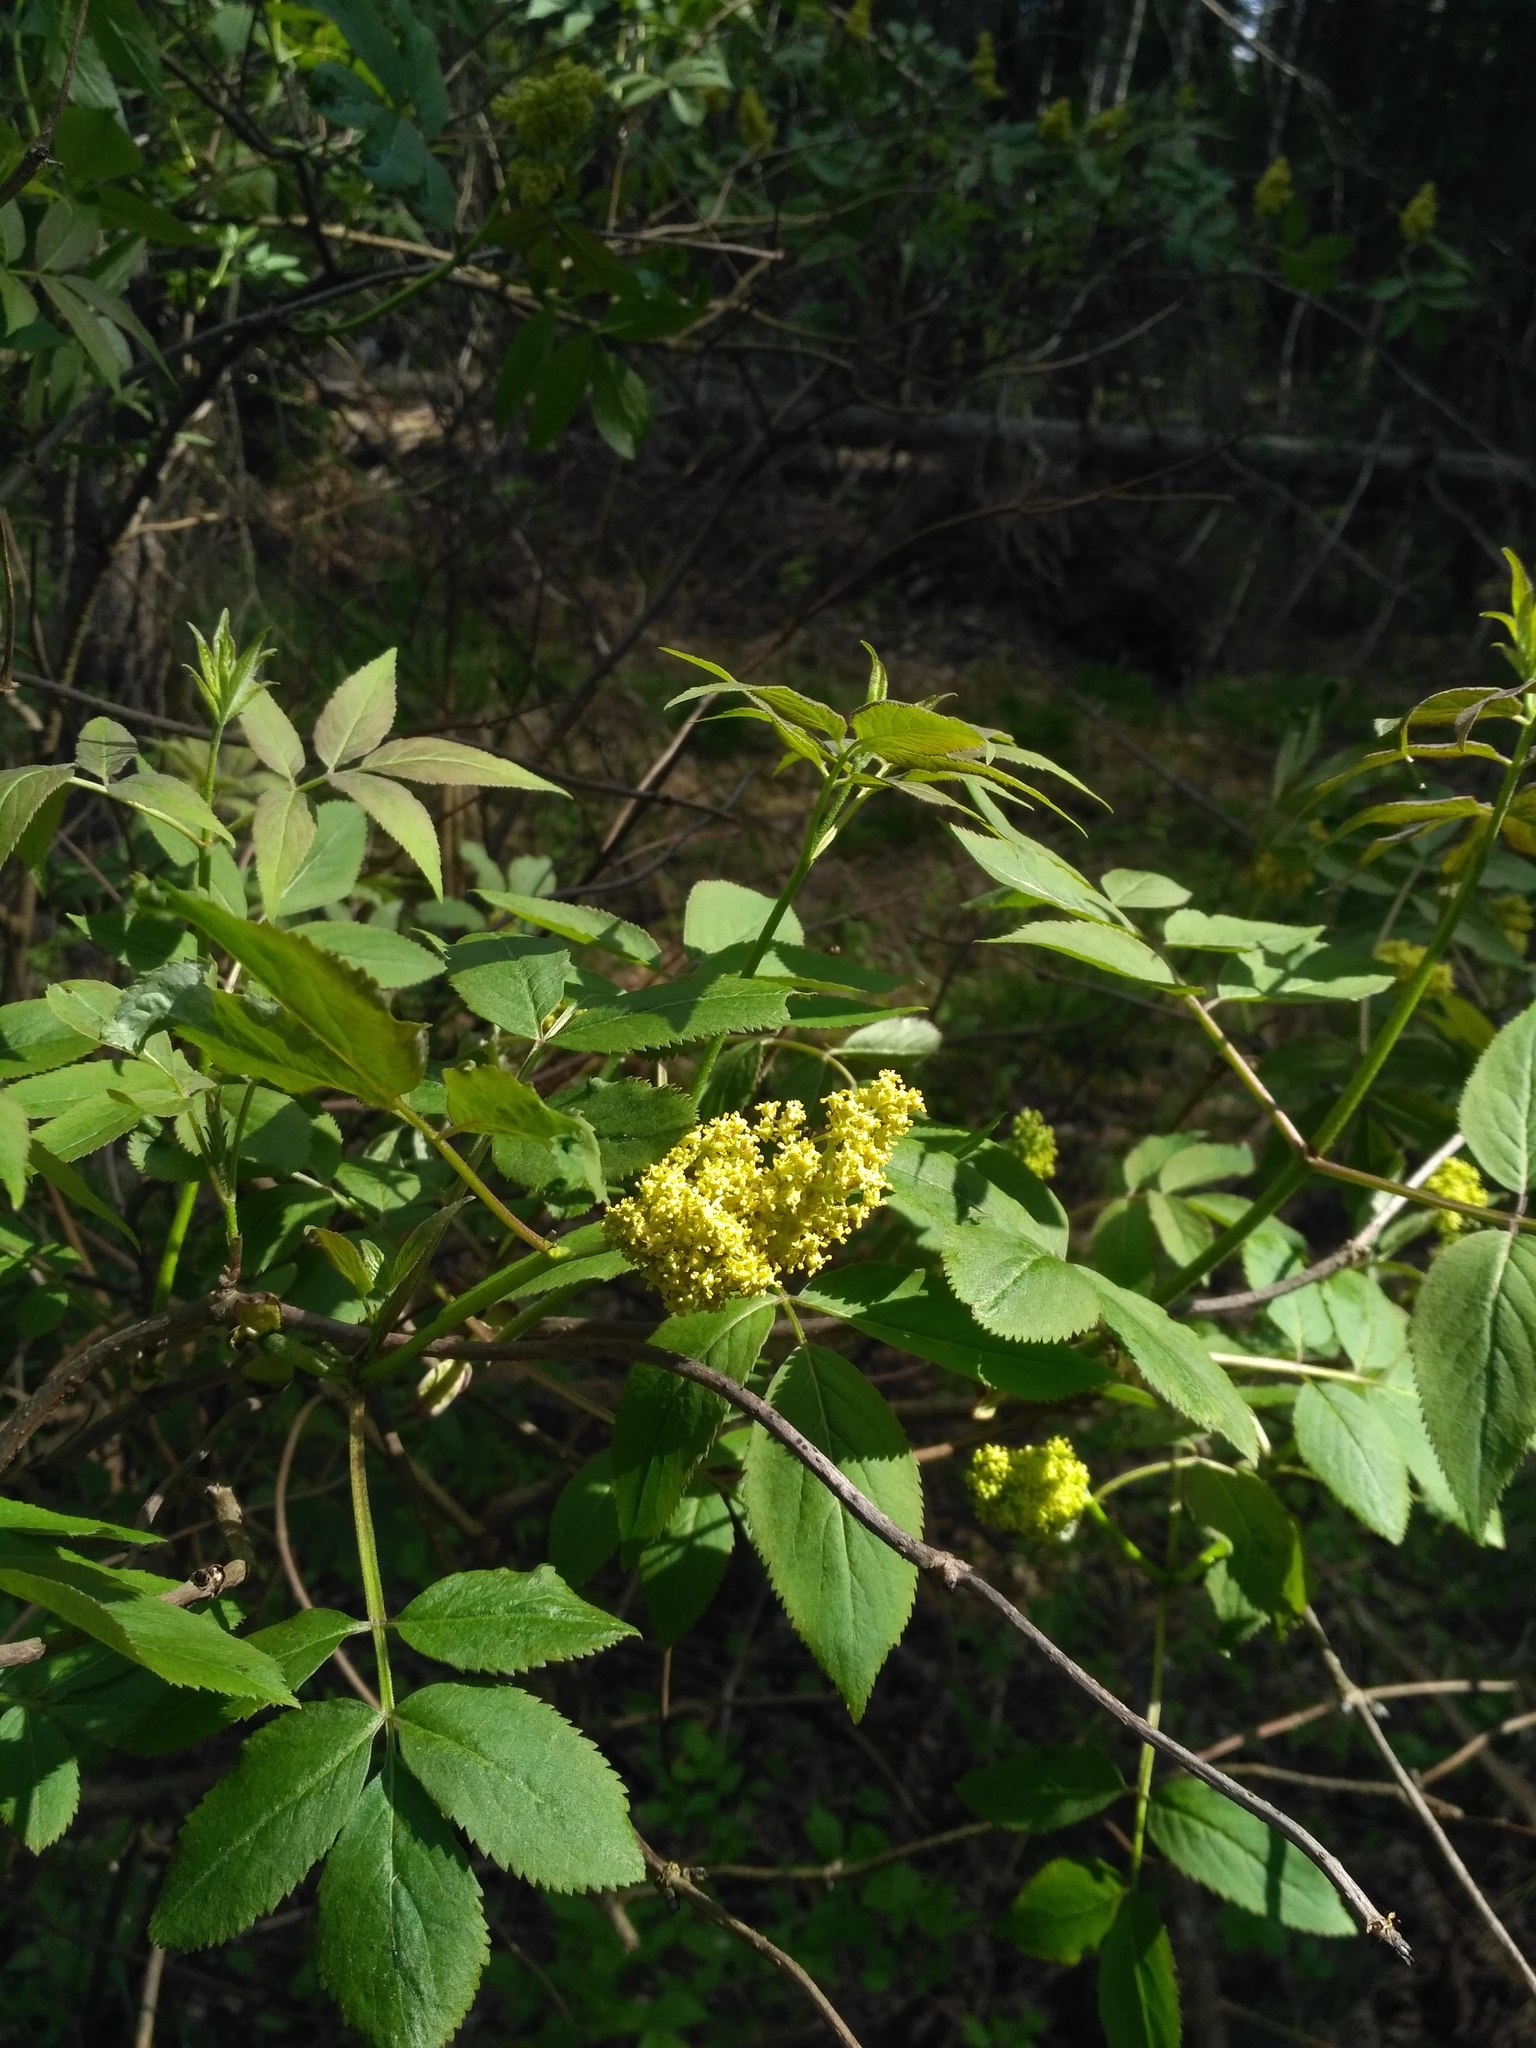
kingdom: Plantae
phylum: Tracheophyta
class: Magnoliopsida
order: Dipsacales
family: Viburnaceae
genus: Sambucus
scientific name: Sambucus racemosa
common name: Red-berried elder
